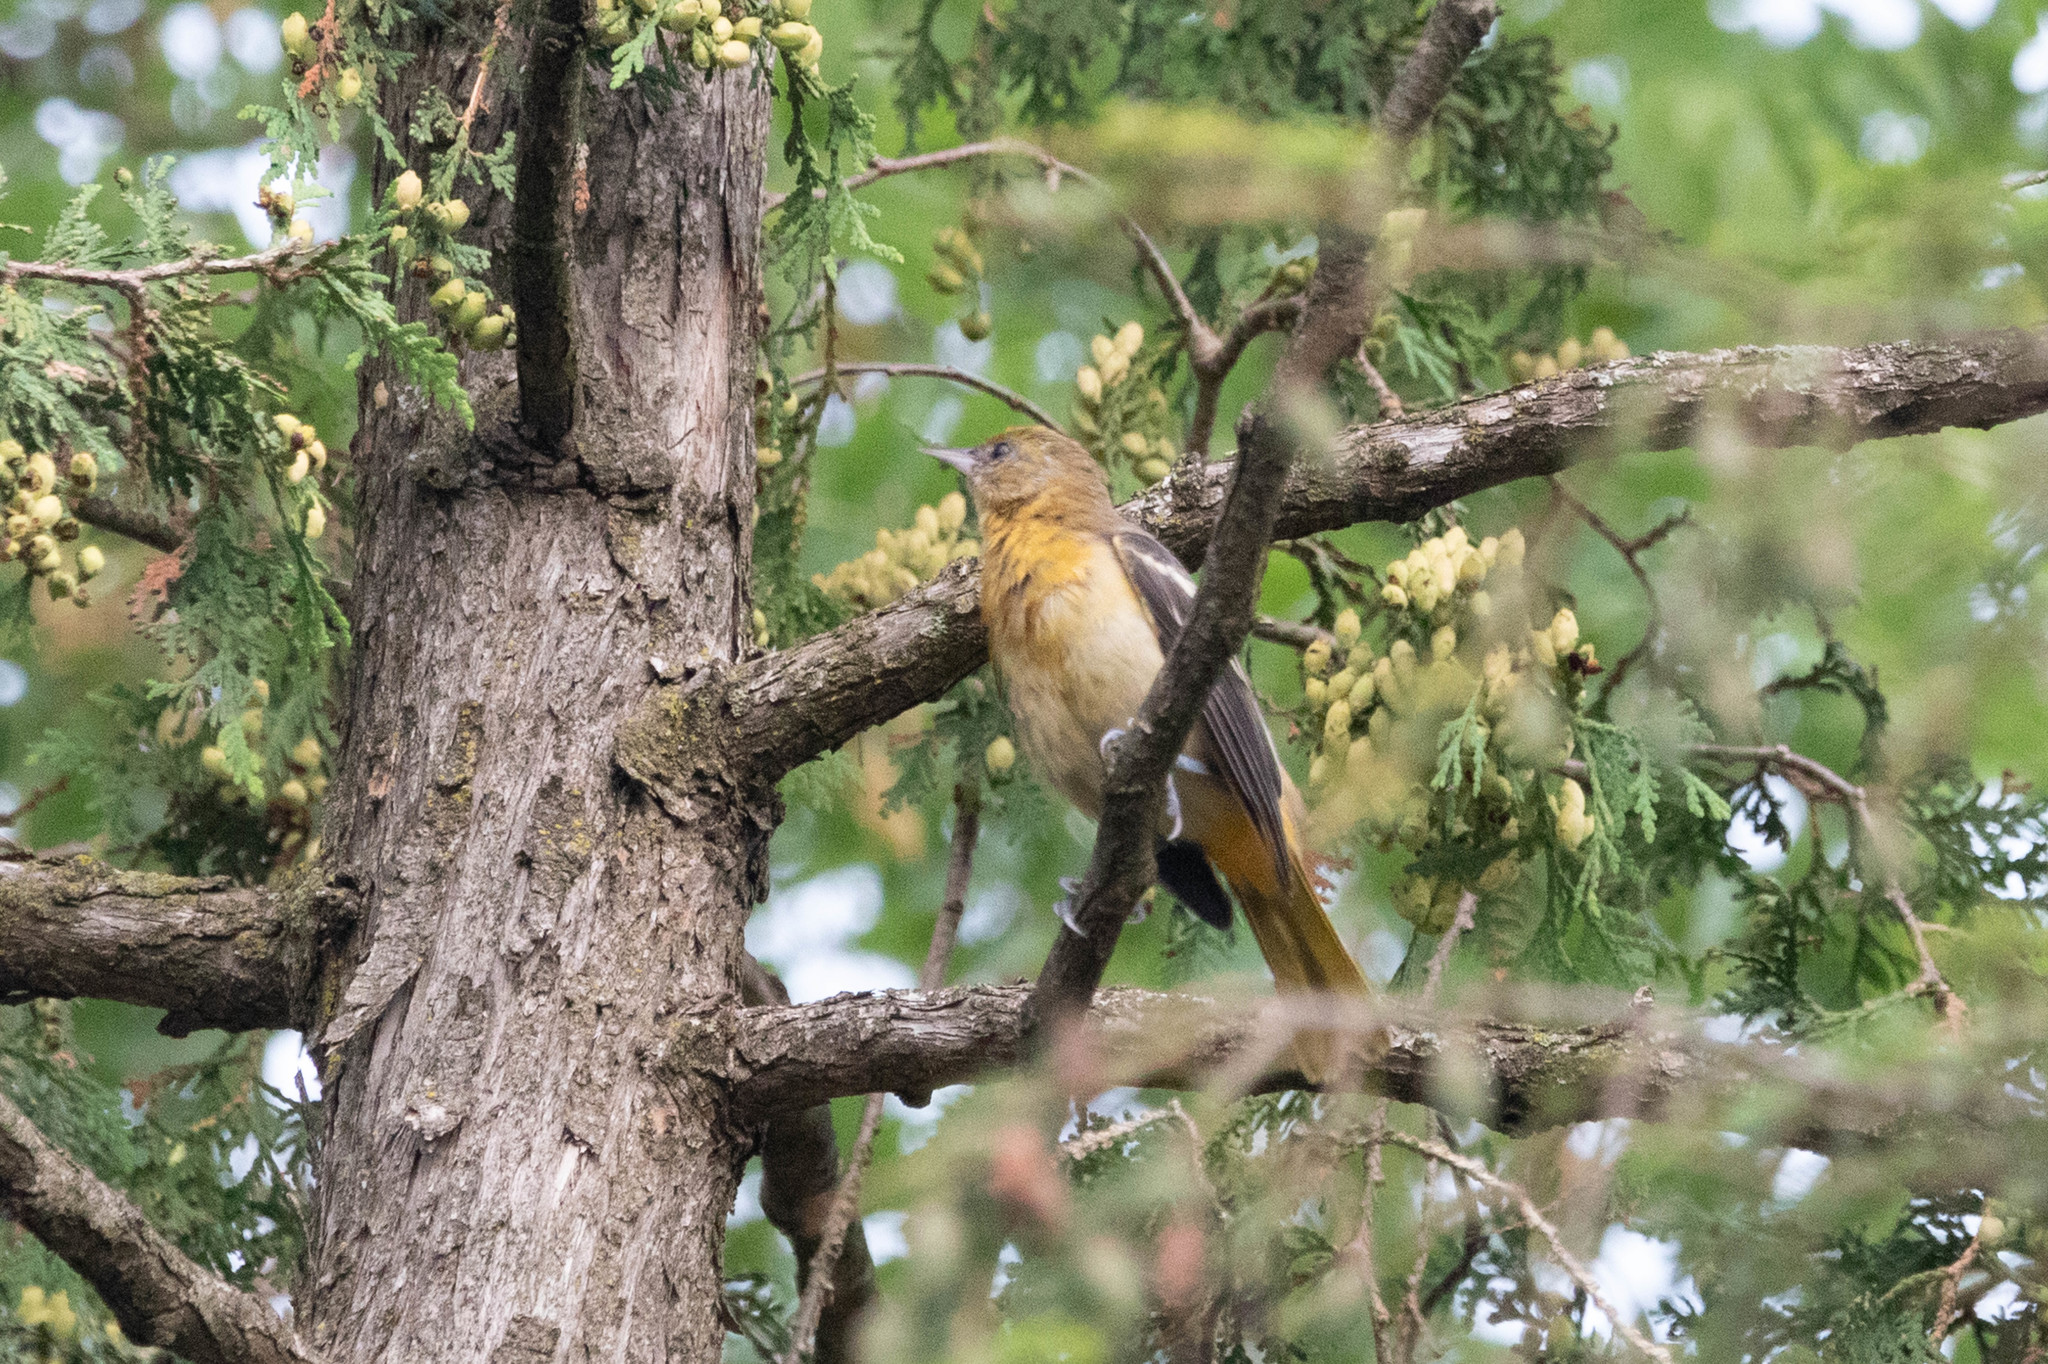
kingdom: Animalia
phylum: Chordata
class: Aves
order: Passeriformes
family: Icteridae
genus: Icterus
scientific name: Icterus galbula
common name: Baltimore oriole
